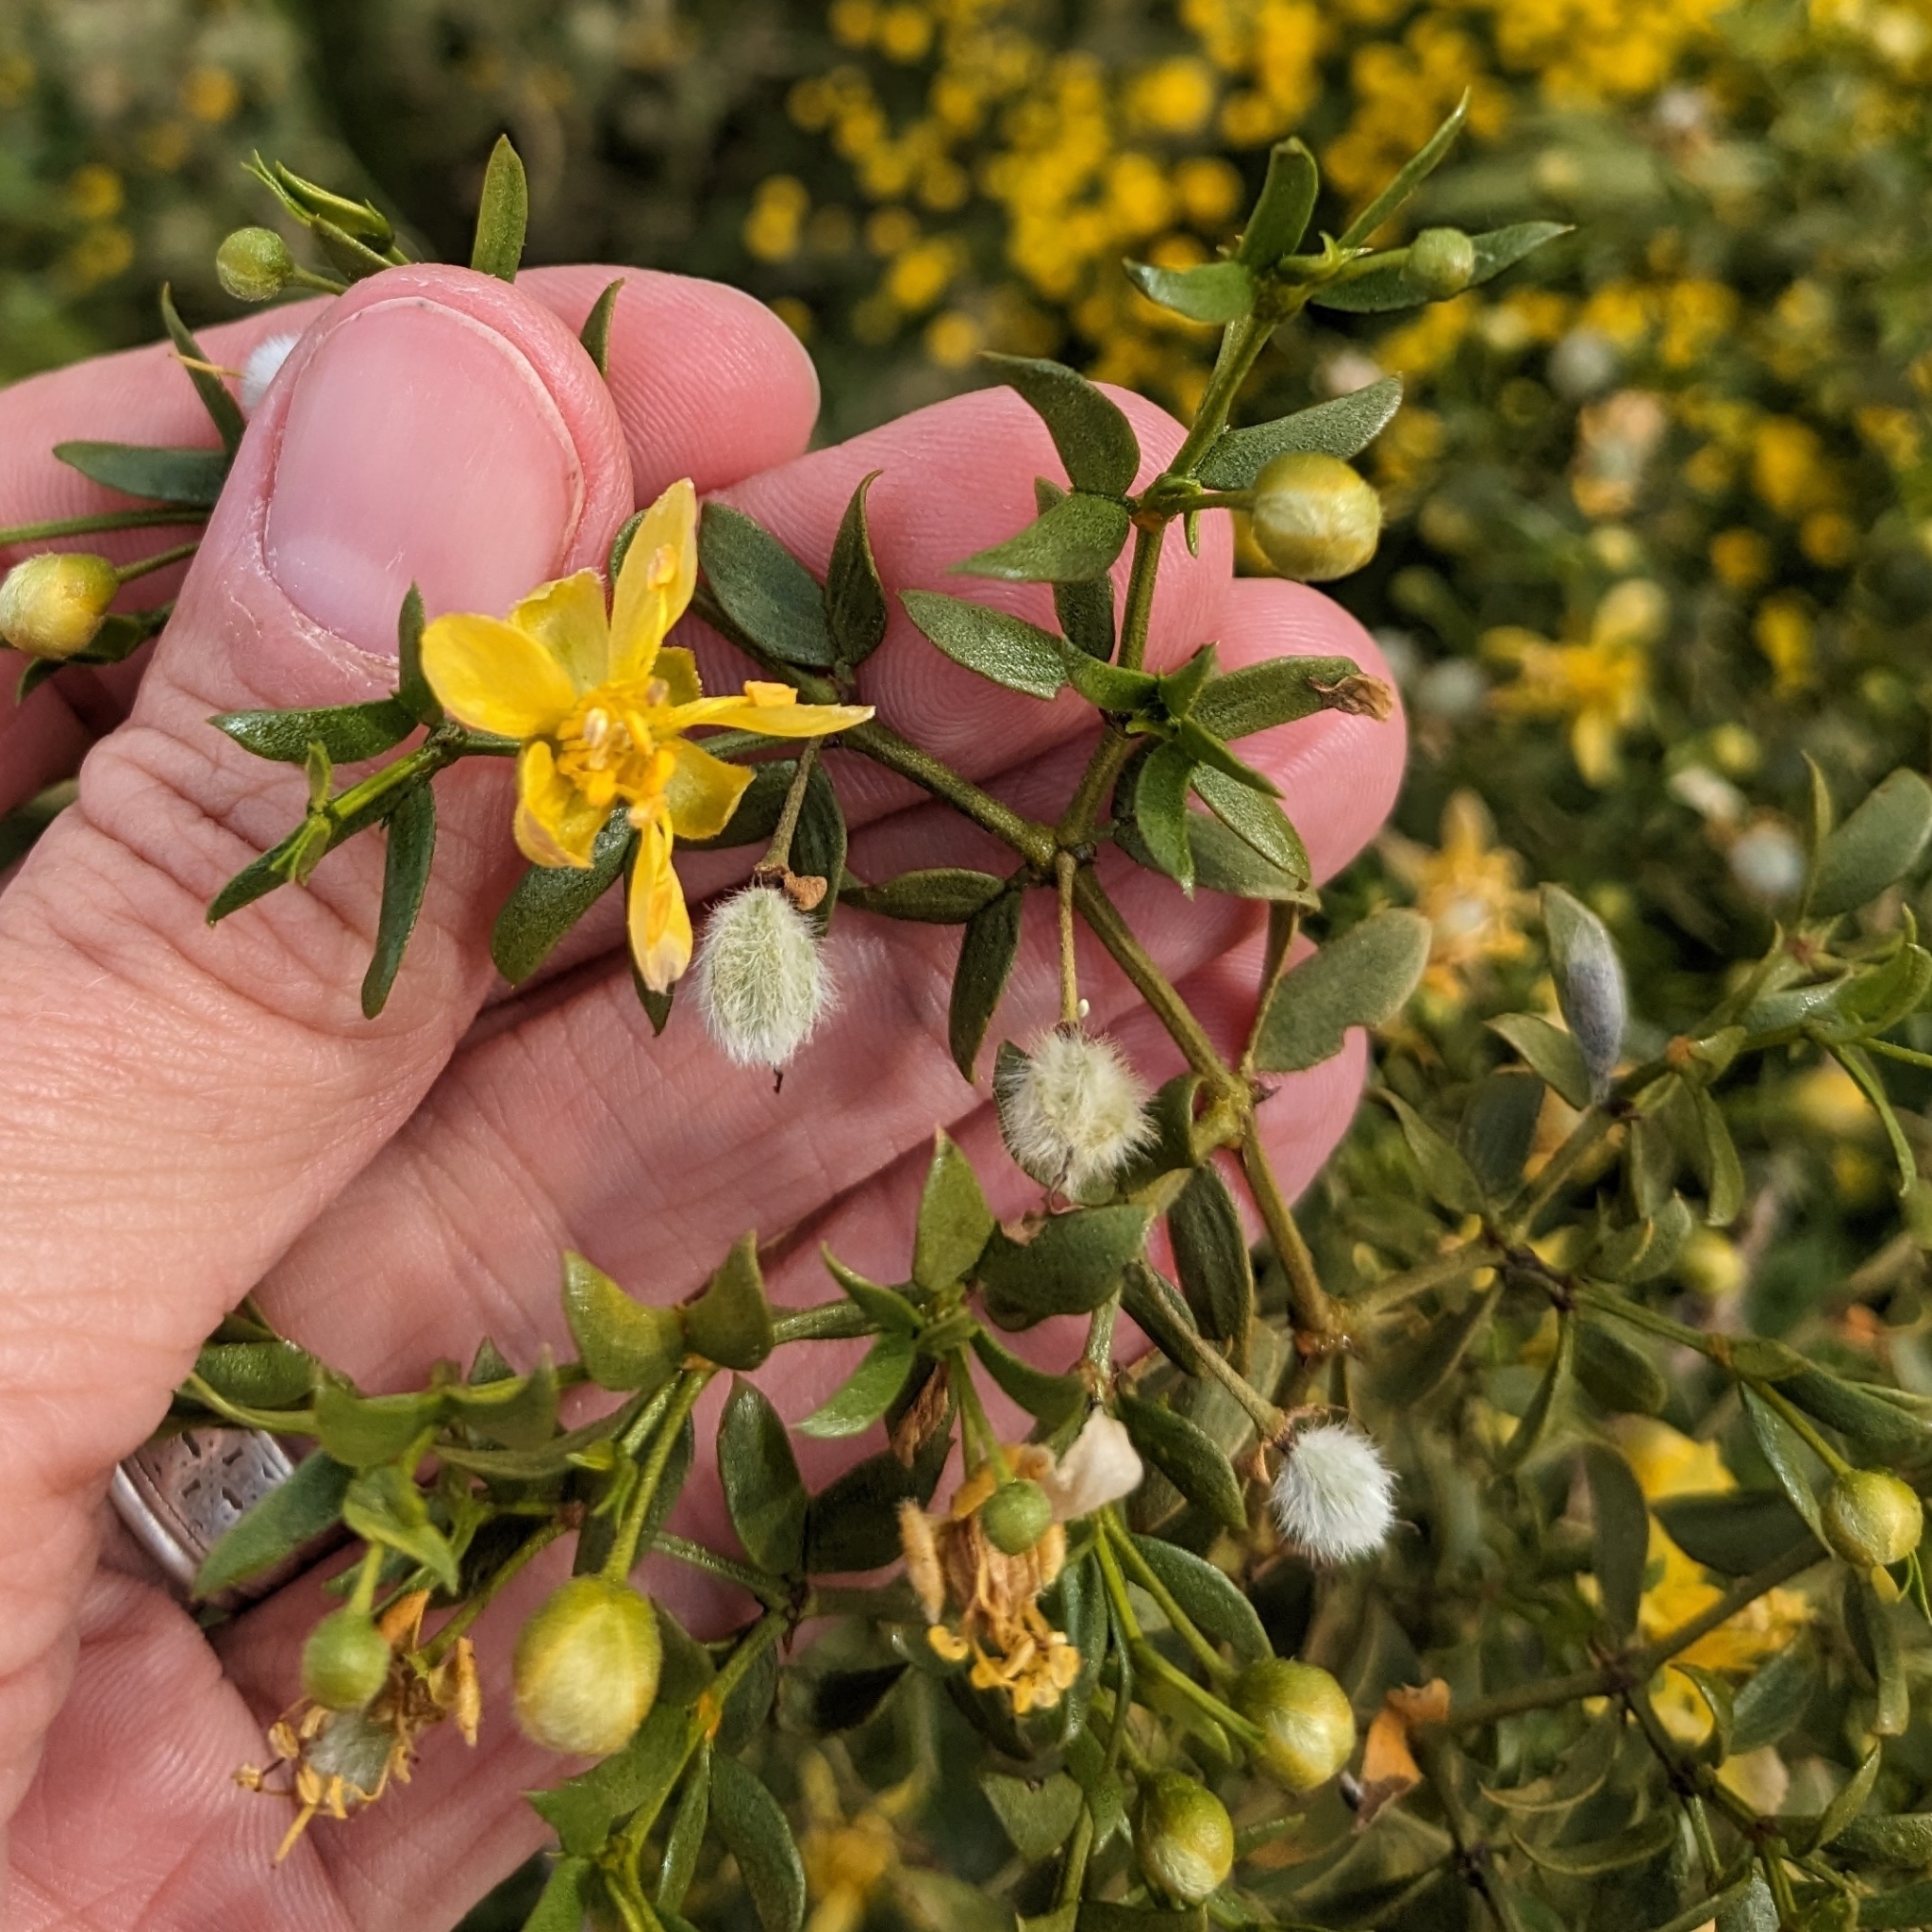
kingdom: Plantae
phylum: Tracheophyta
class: Magnoliopsida
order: Zygophyllales
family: Zygophyllaceae
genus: Larrea
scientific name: Larrea tridentata
